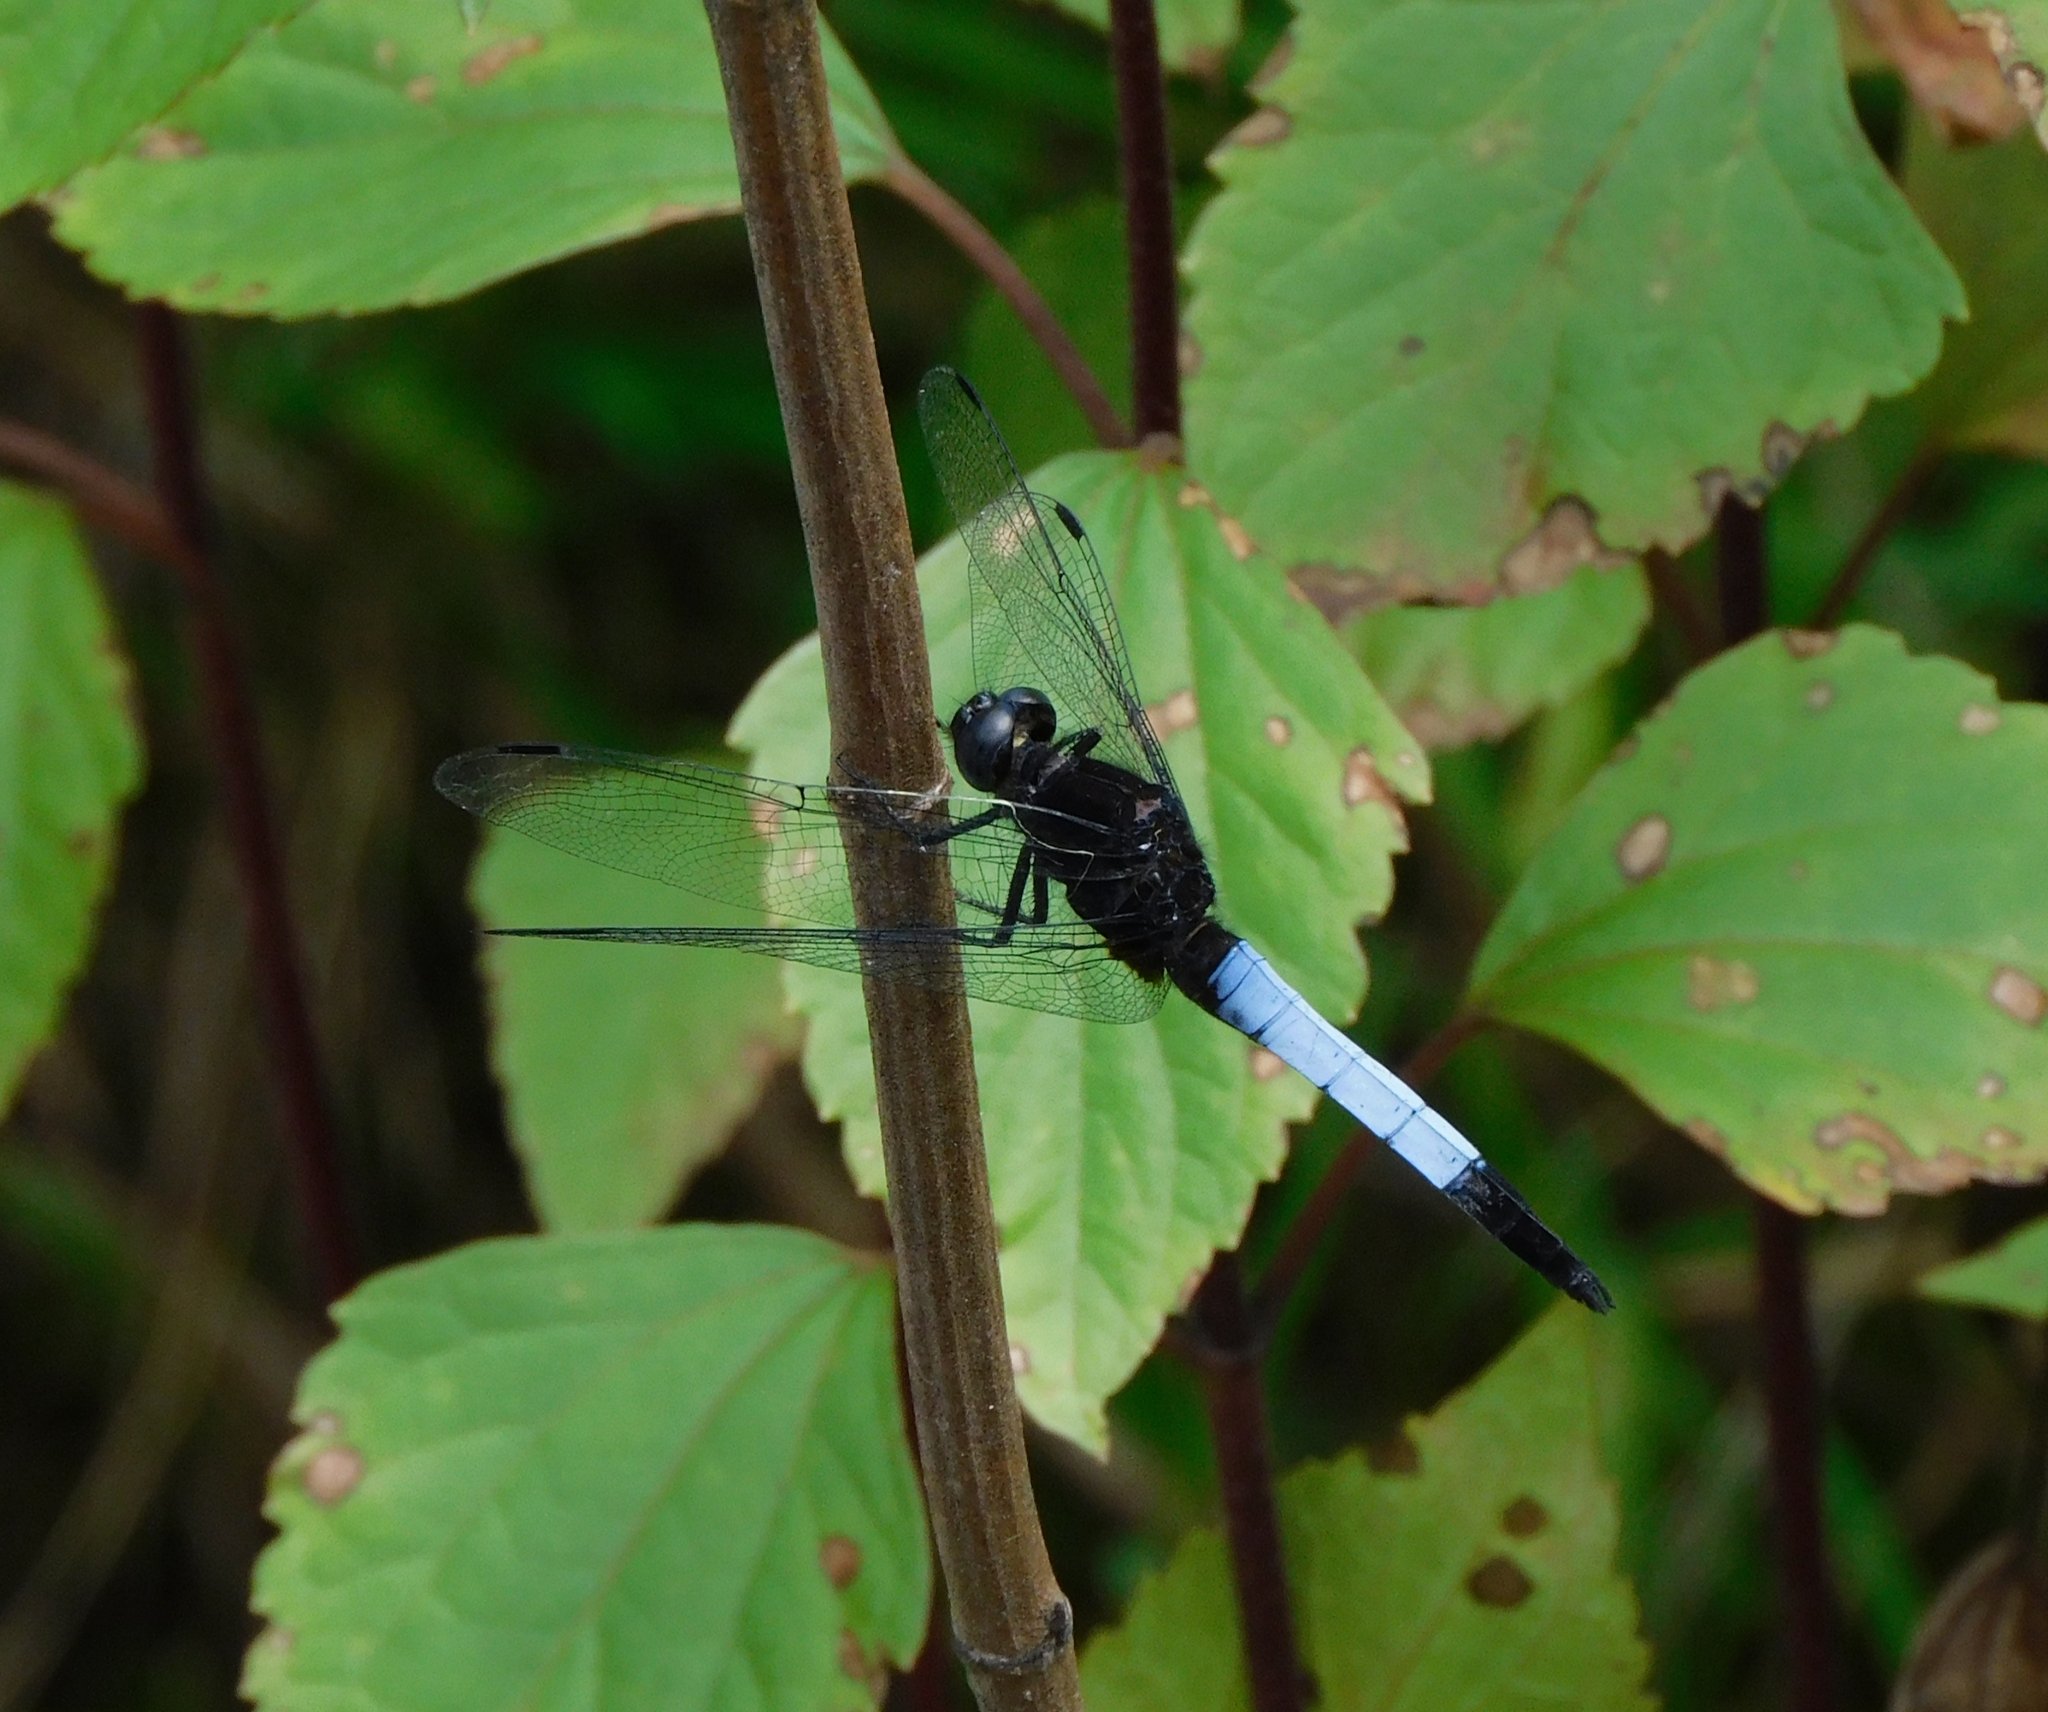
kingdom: Animalia
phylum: Arthropoda
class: Insecta
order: Odonata
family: Libellulidae
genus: Orthetrum
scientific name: Orthetrum triangulare
